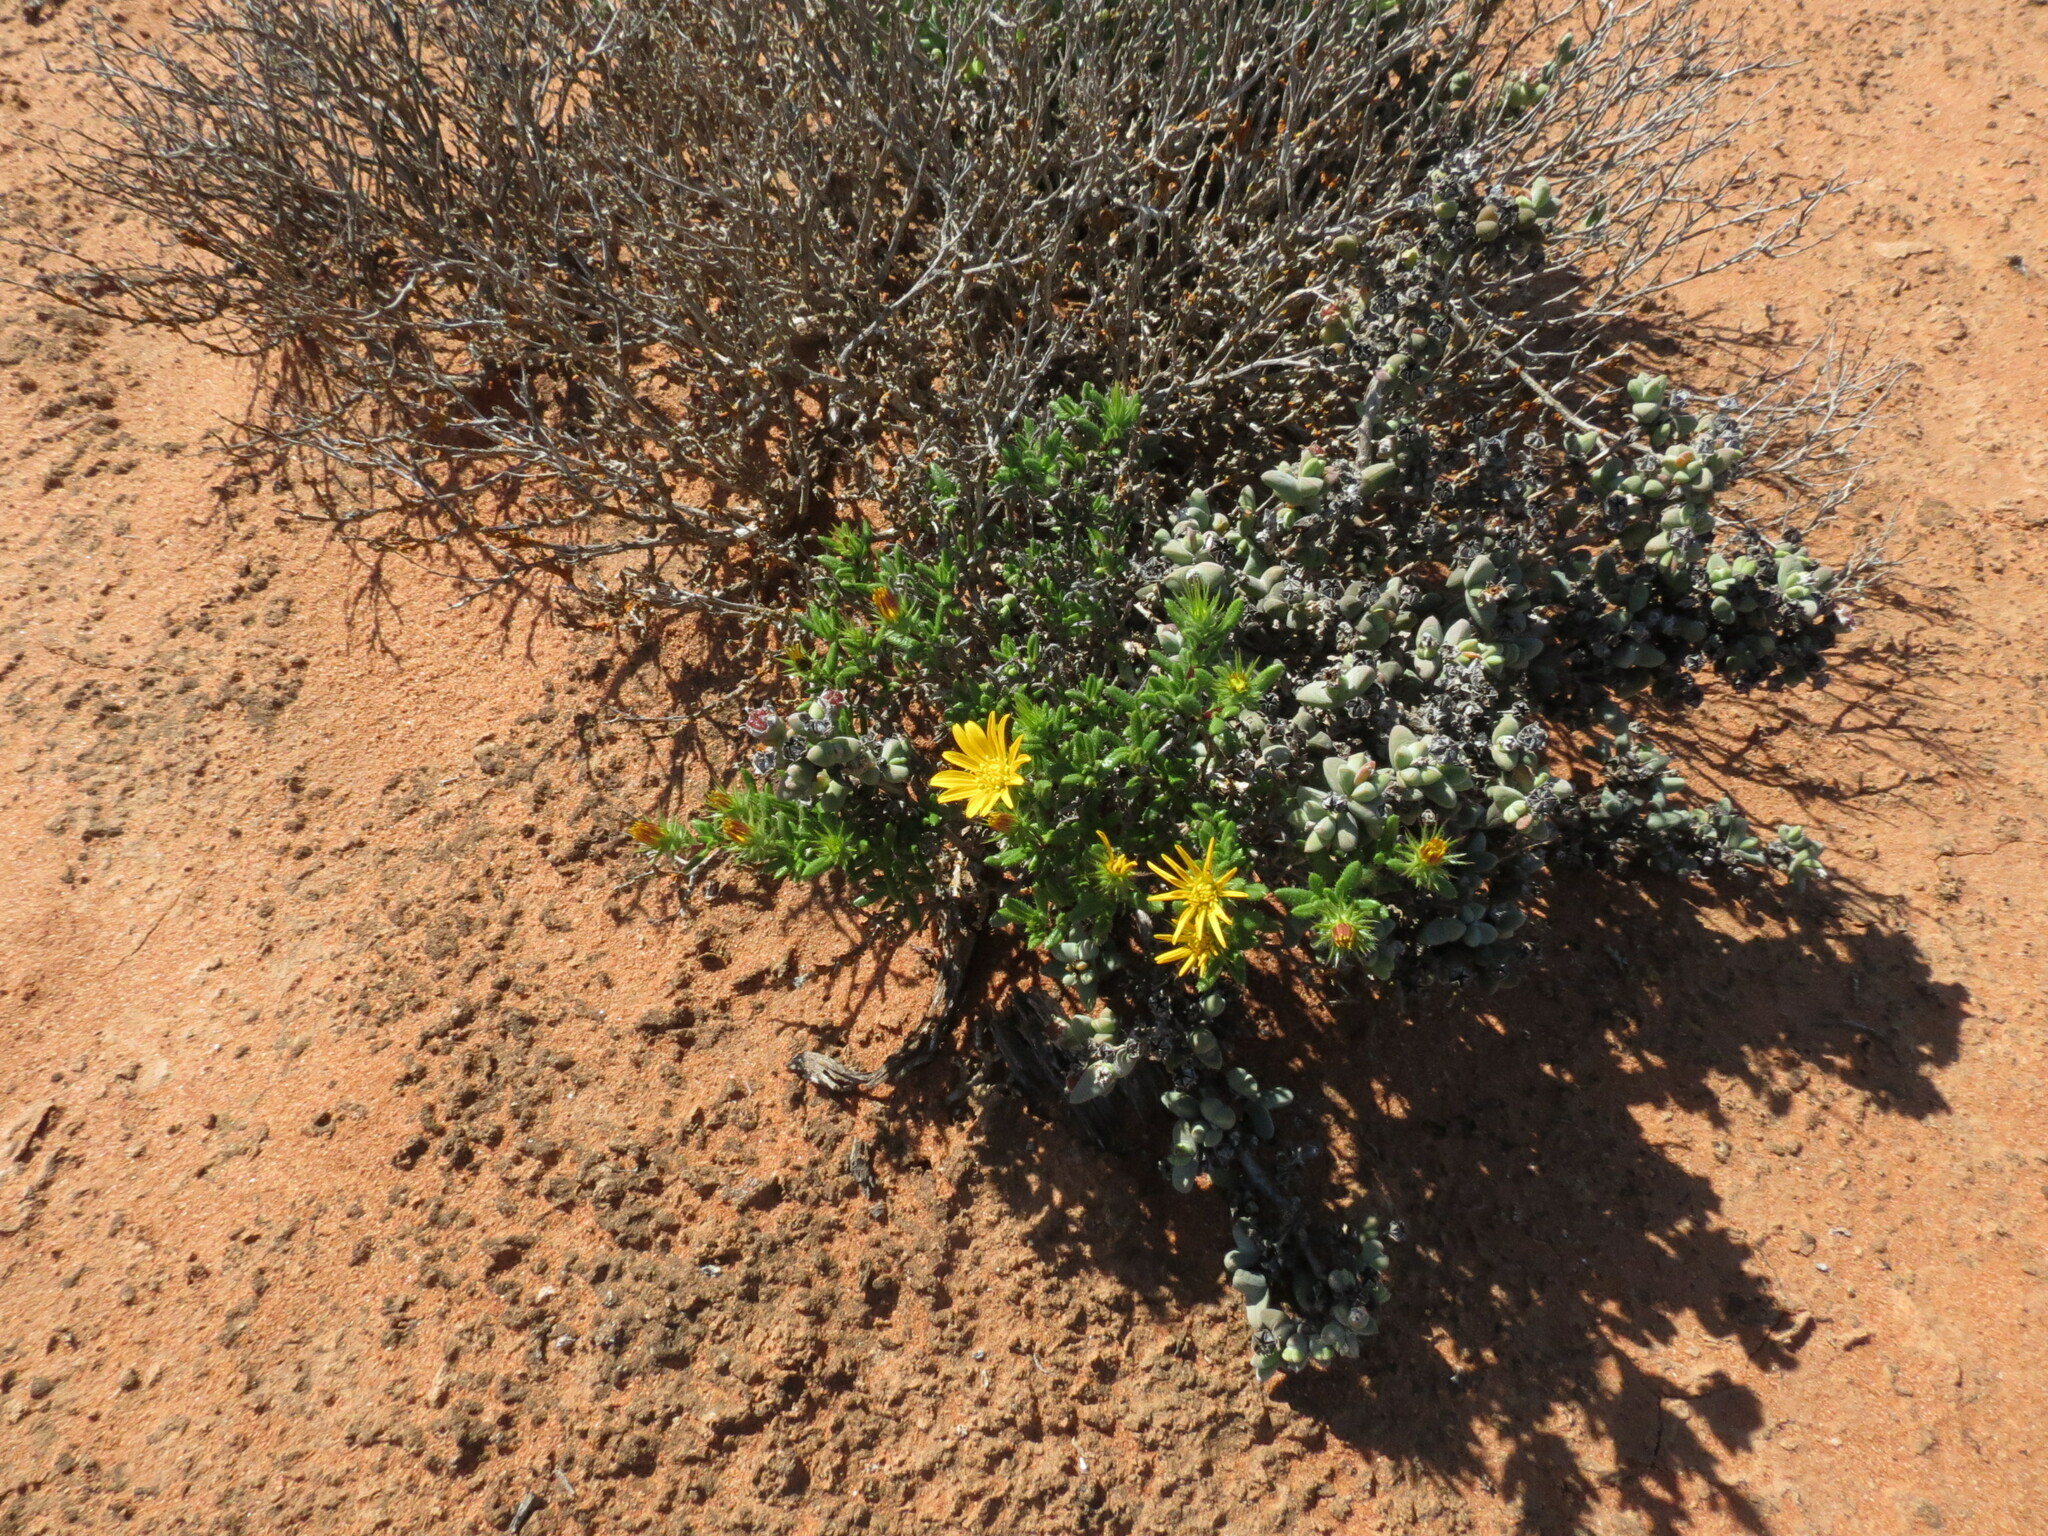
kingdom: Plantae
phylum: Tracheophyta
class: Magnoliopsida
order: Asterales
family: Asteraceae
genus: Gorteria
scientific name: Gorteria alienata
